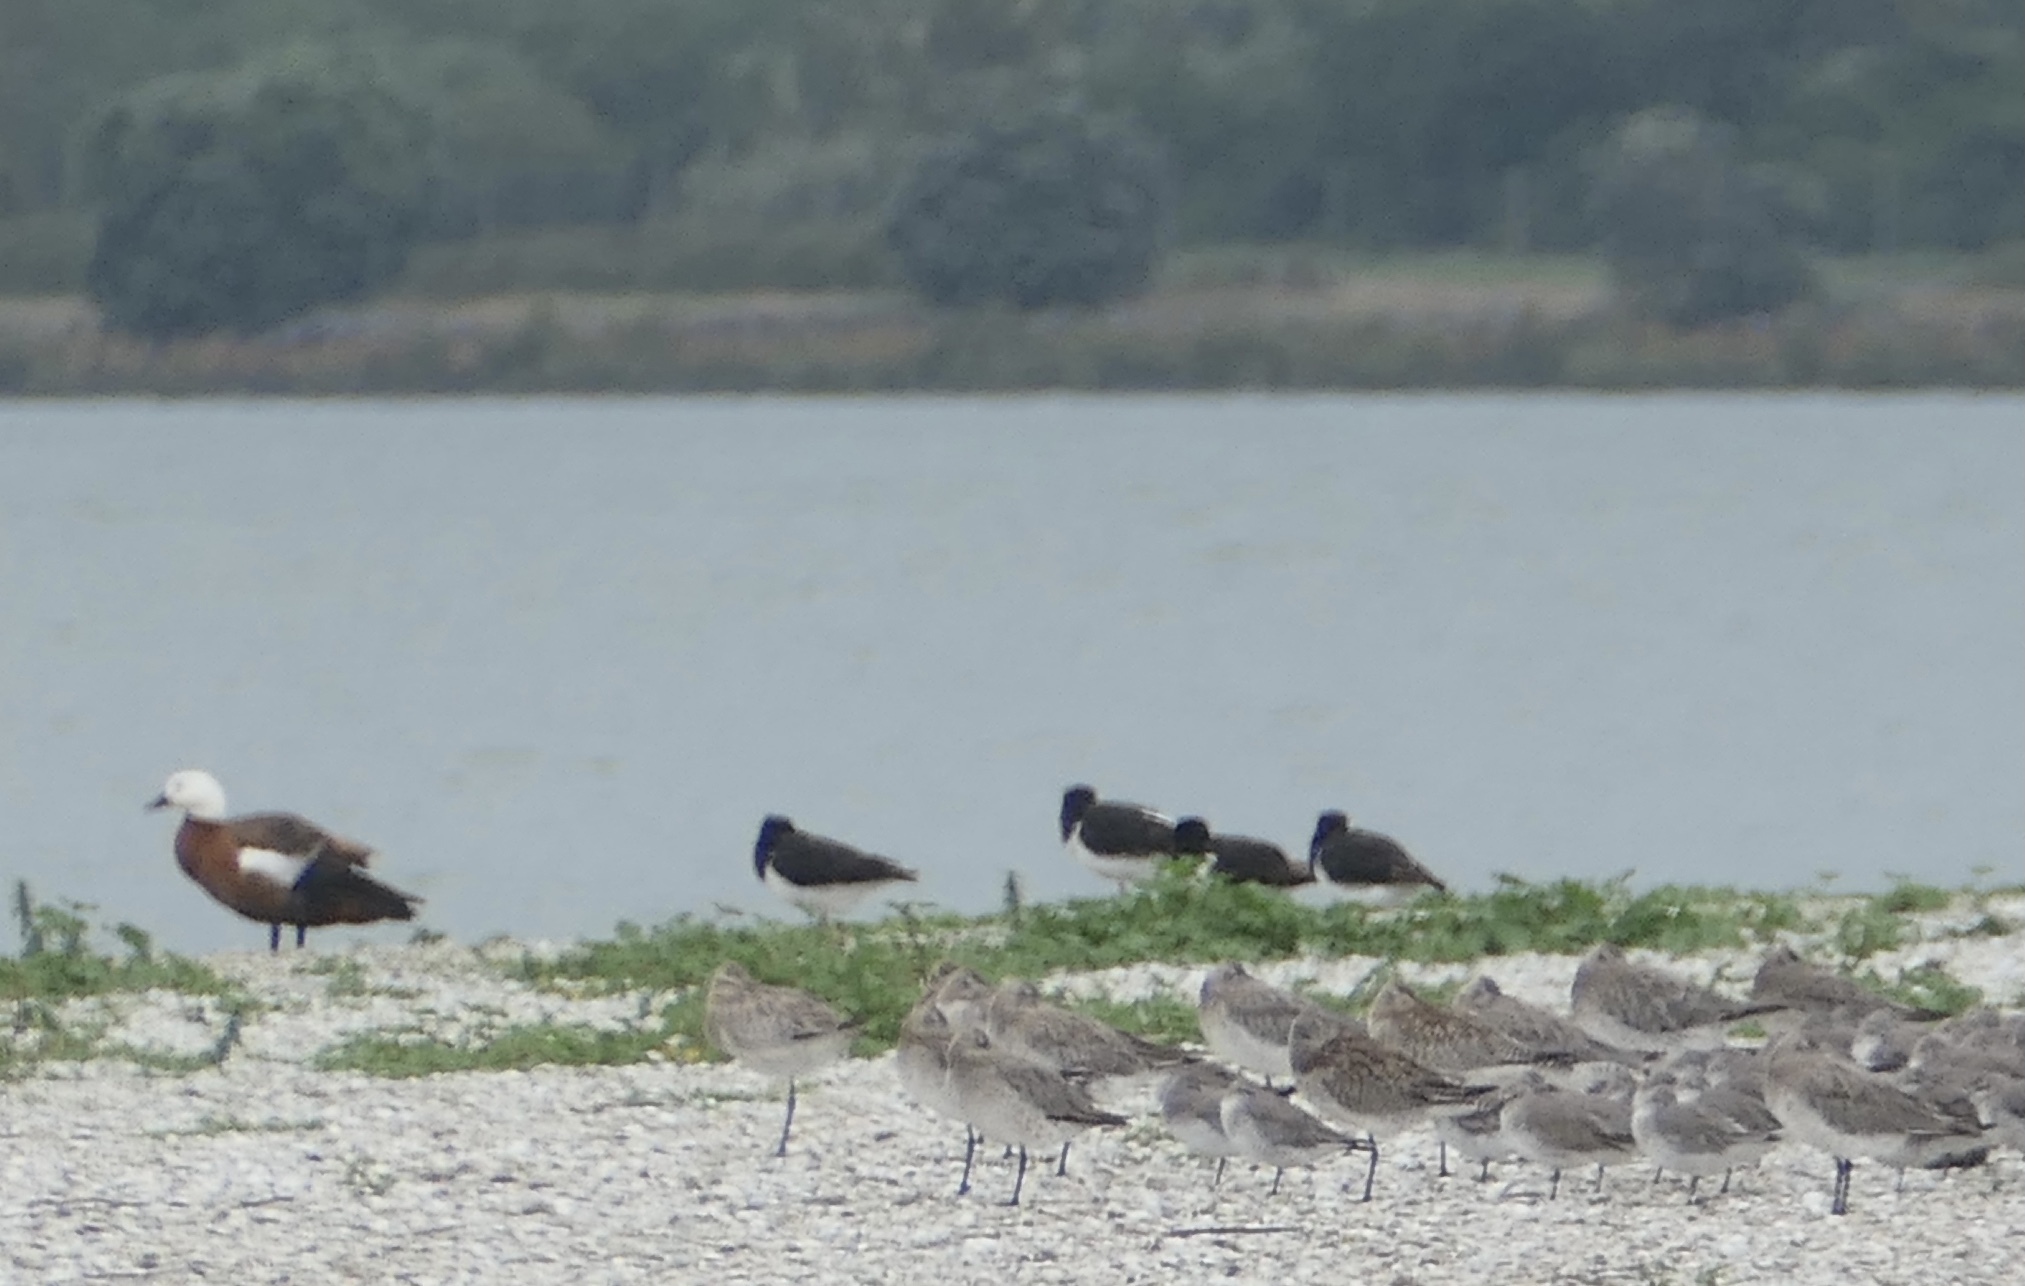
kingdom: Animalia
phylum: Chordata
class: Aves
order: Charadriiformes
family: Haematopodidae
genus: Haematopus
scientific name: Haematopus finschi
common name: South island oystercatcher
